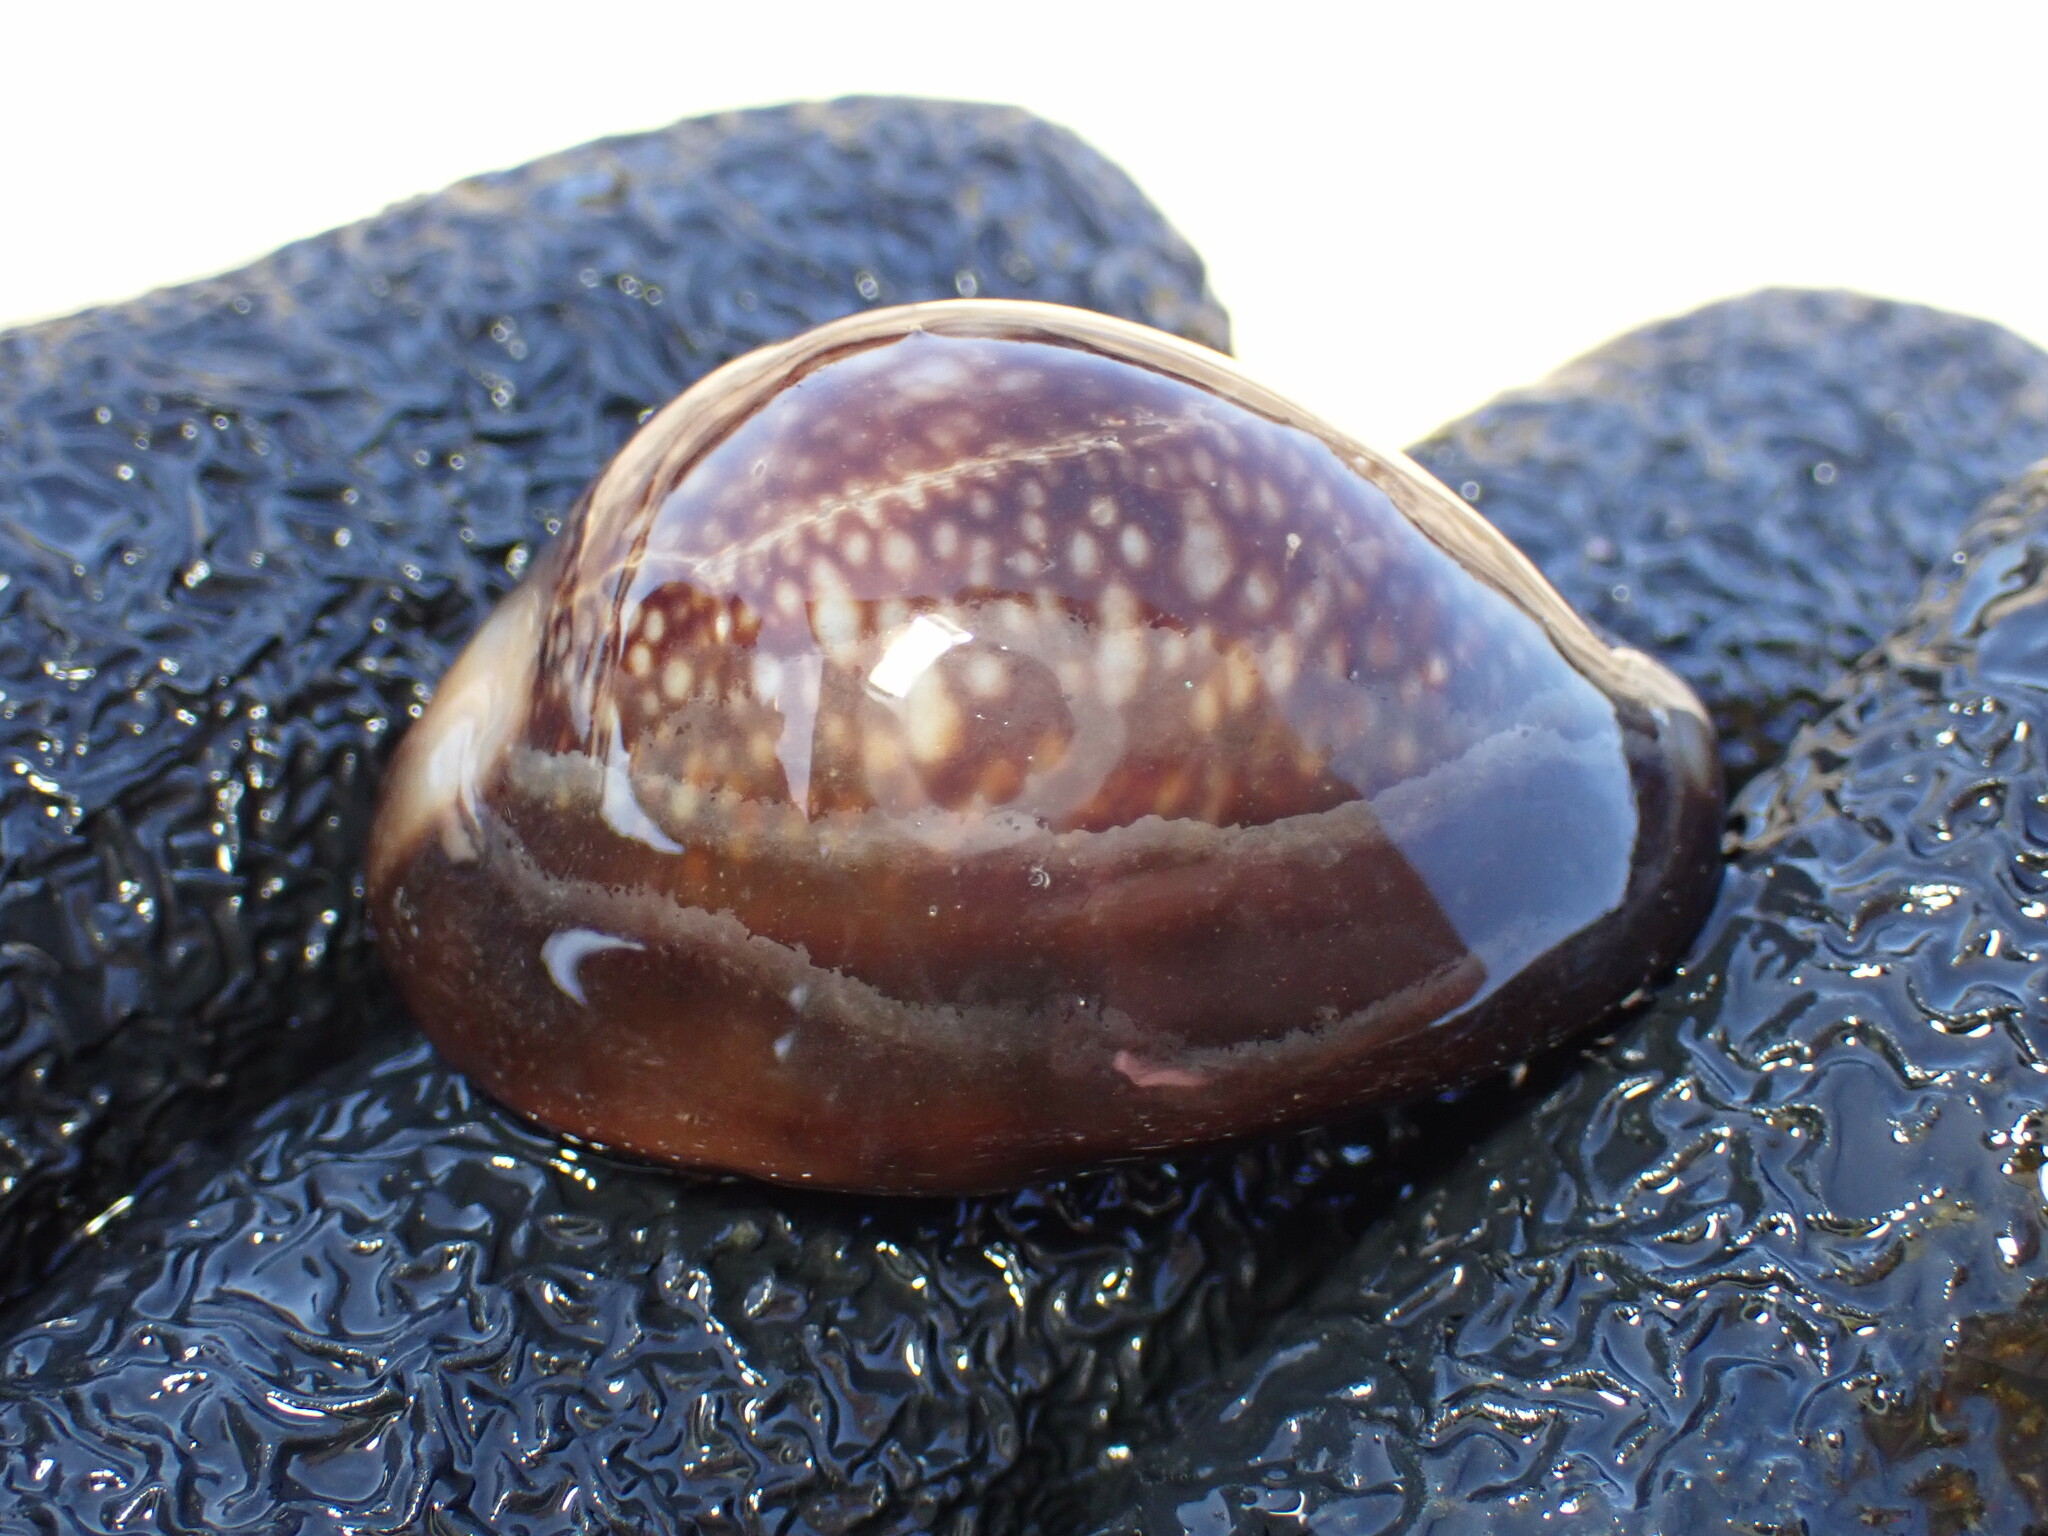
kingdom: Animalia
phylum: Mollusca
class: Gastropoda
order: Littorinimorpha
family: Cypraeidae
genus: Monetaria
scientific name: Monetaria caputserpentis
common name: Serpent's head cowrie
